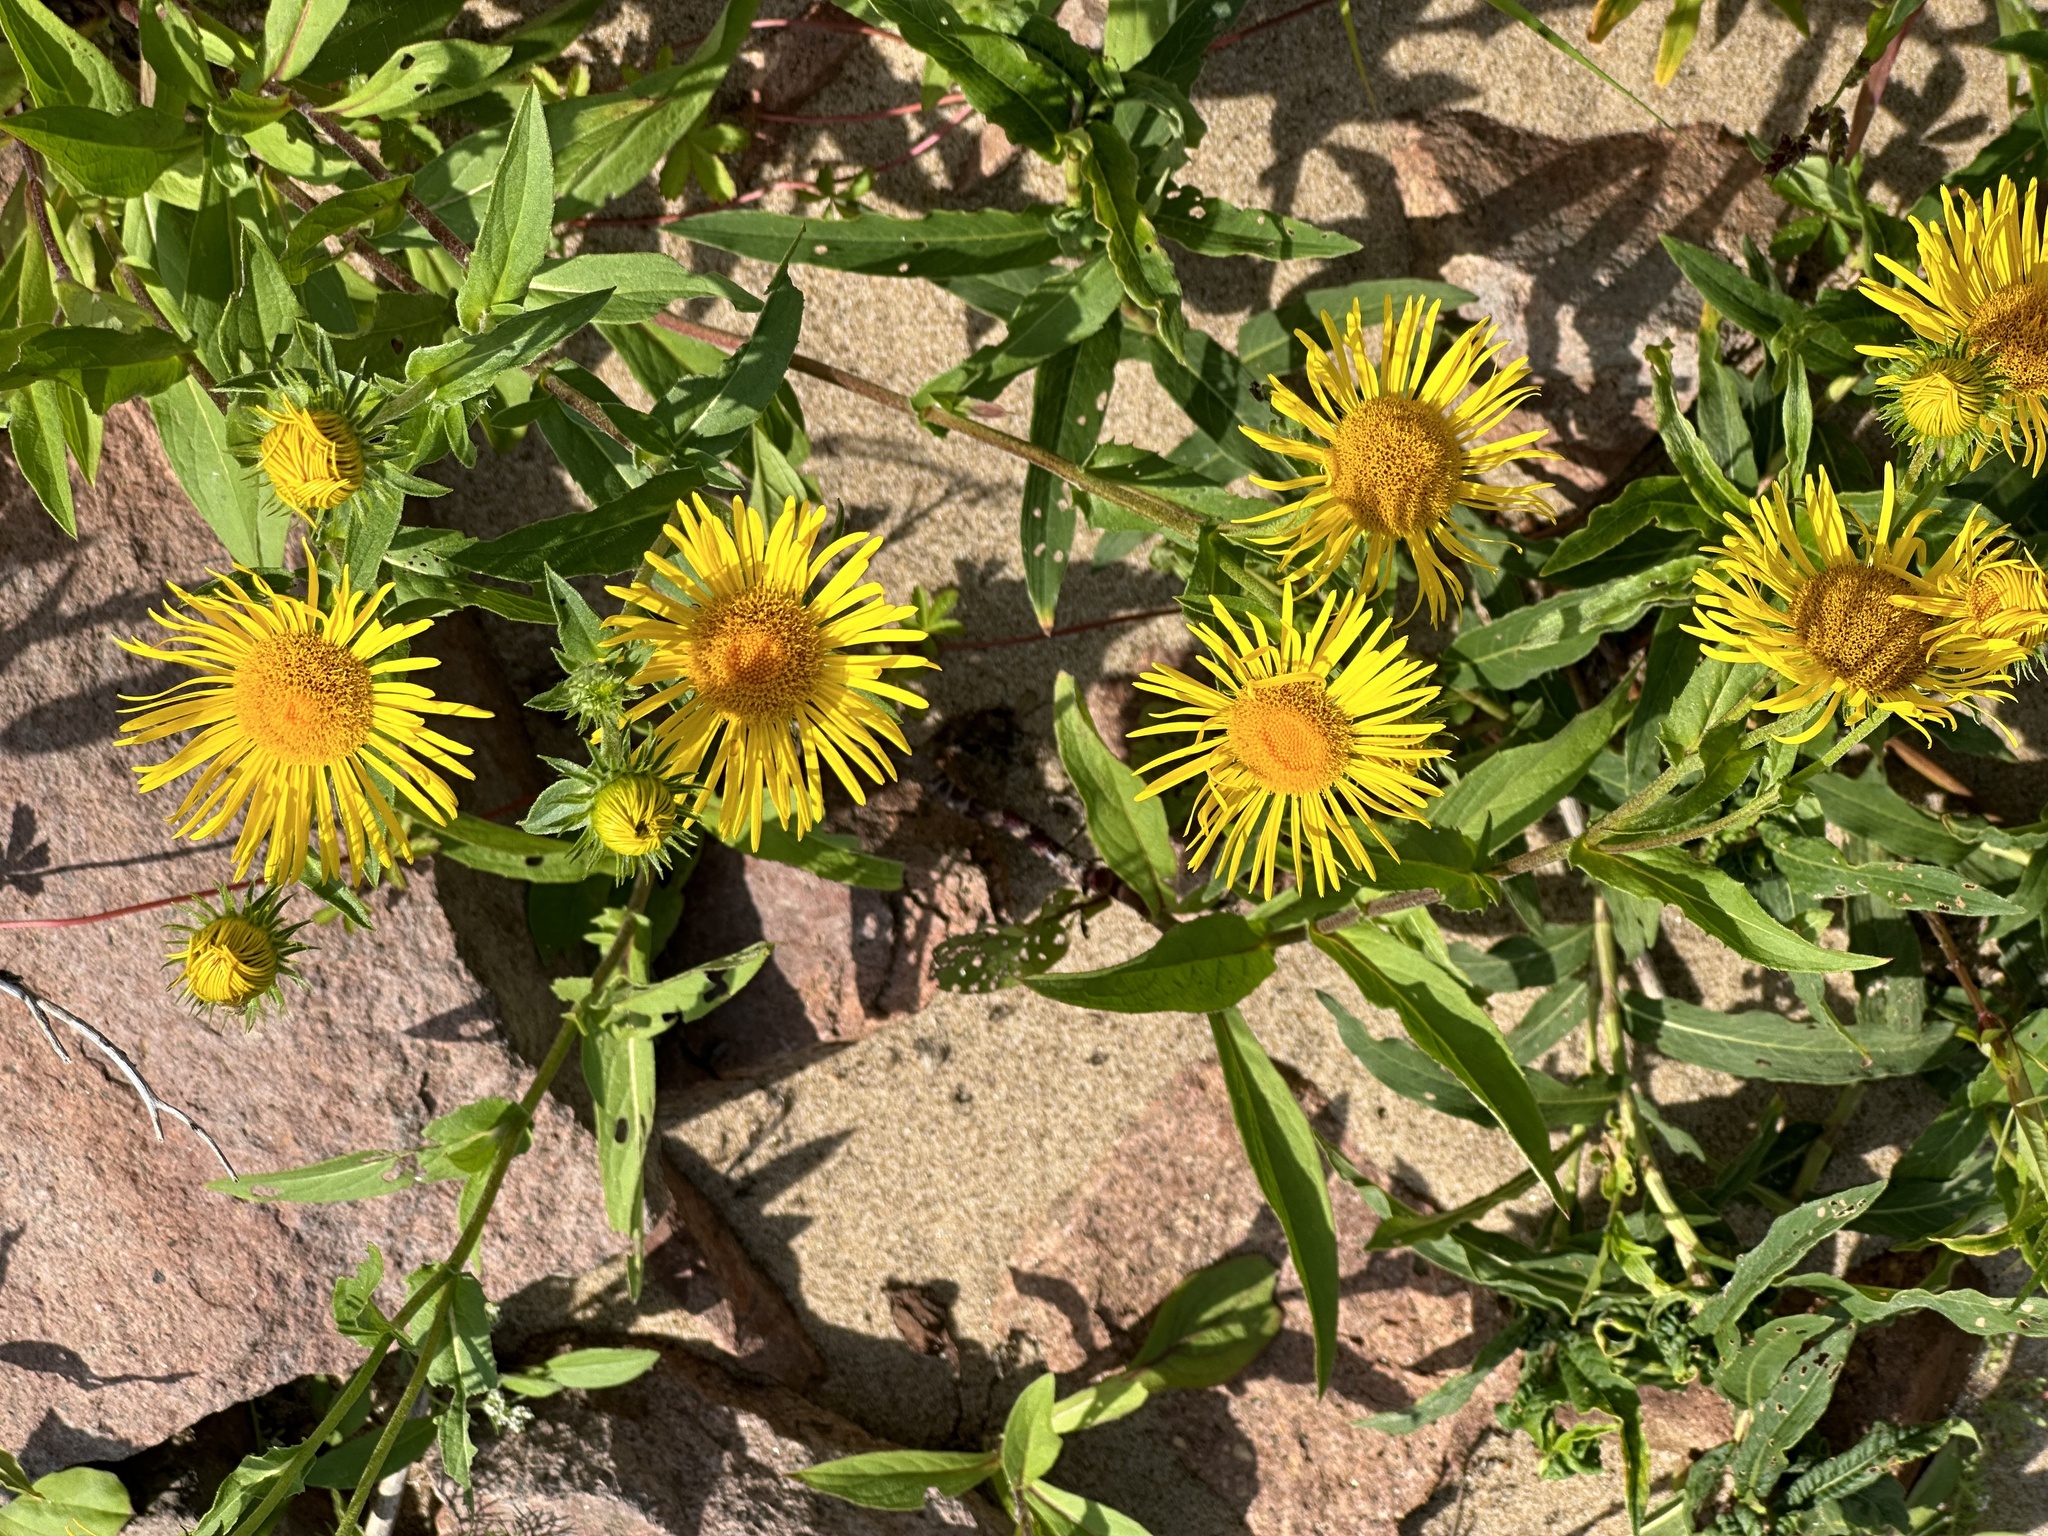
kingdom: Plantae
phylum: Tracheophyta
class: Magnoliopsida
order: Asterales
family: Asteraceae
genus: Pentanema
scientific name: Pentanema britannicum
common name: British elecampane
